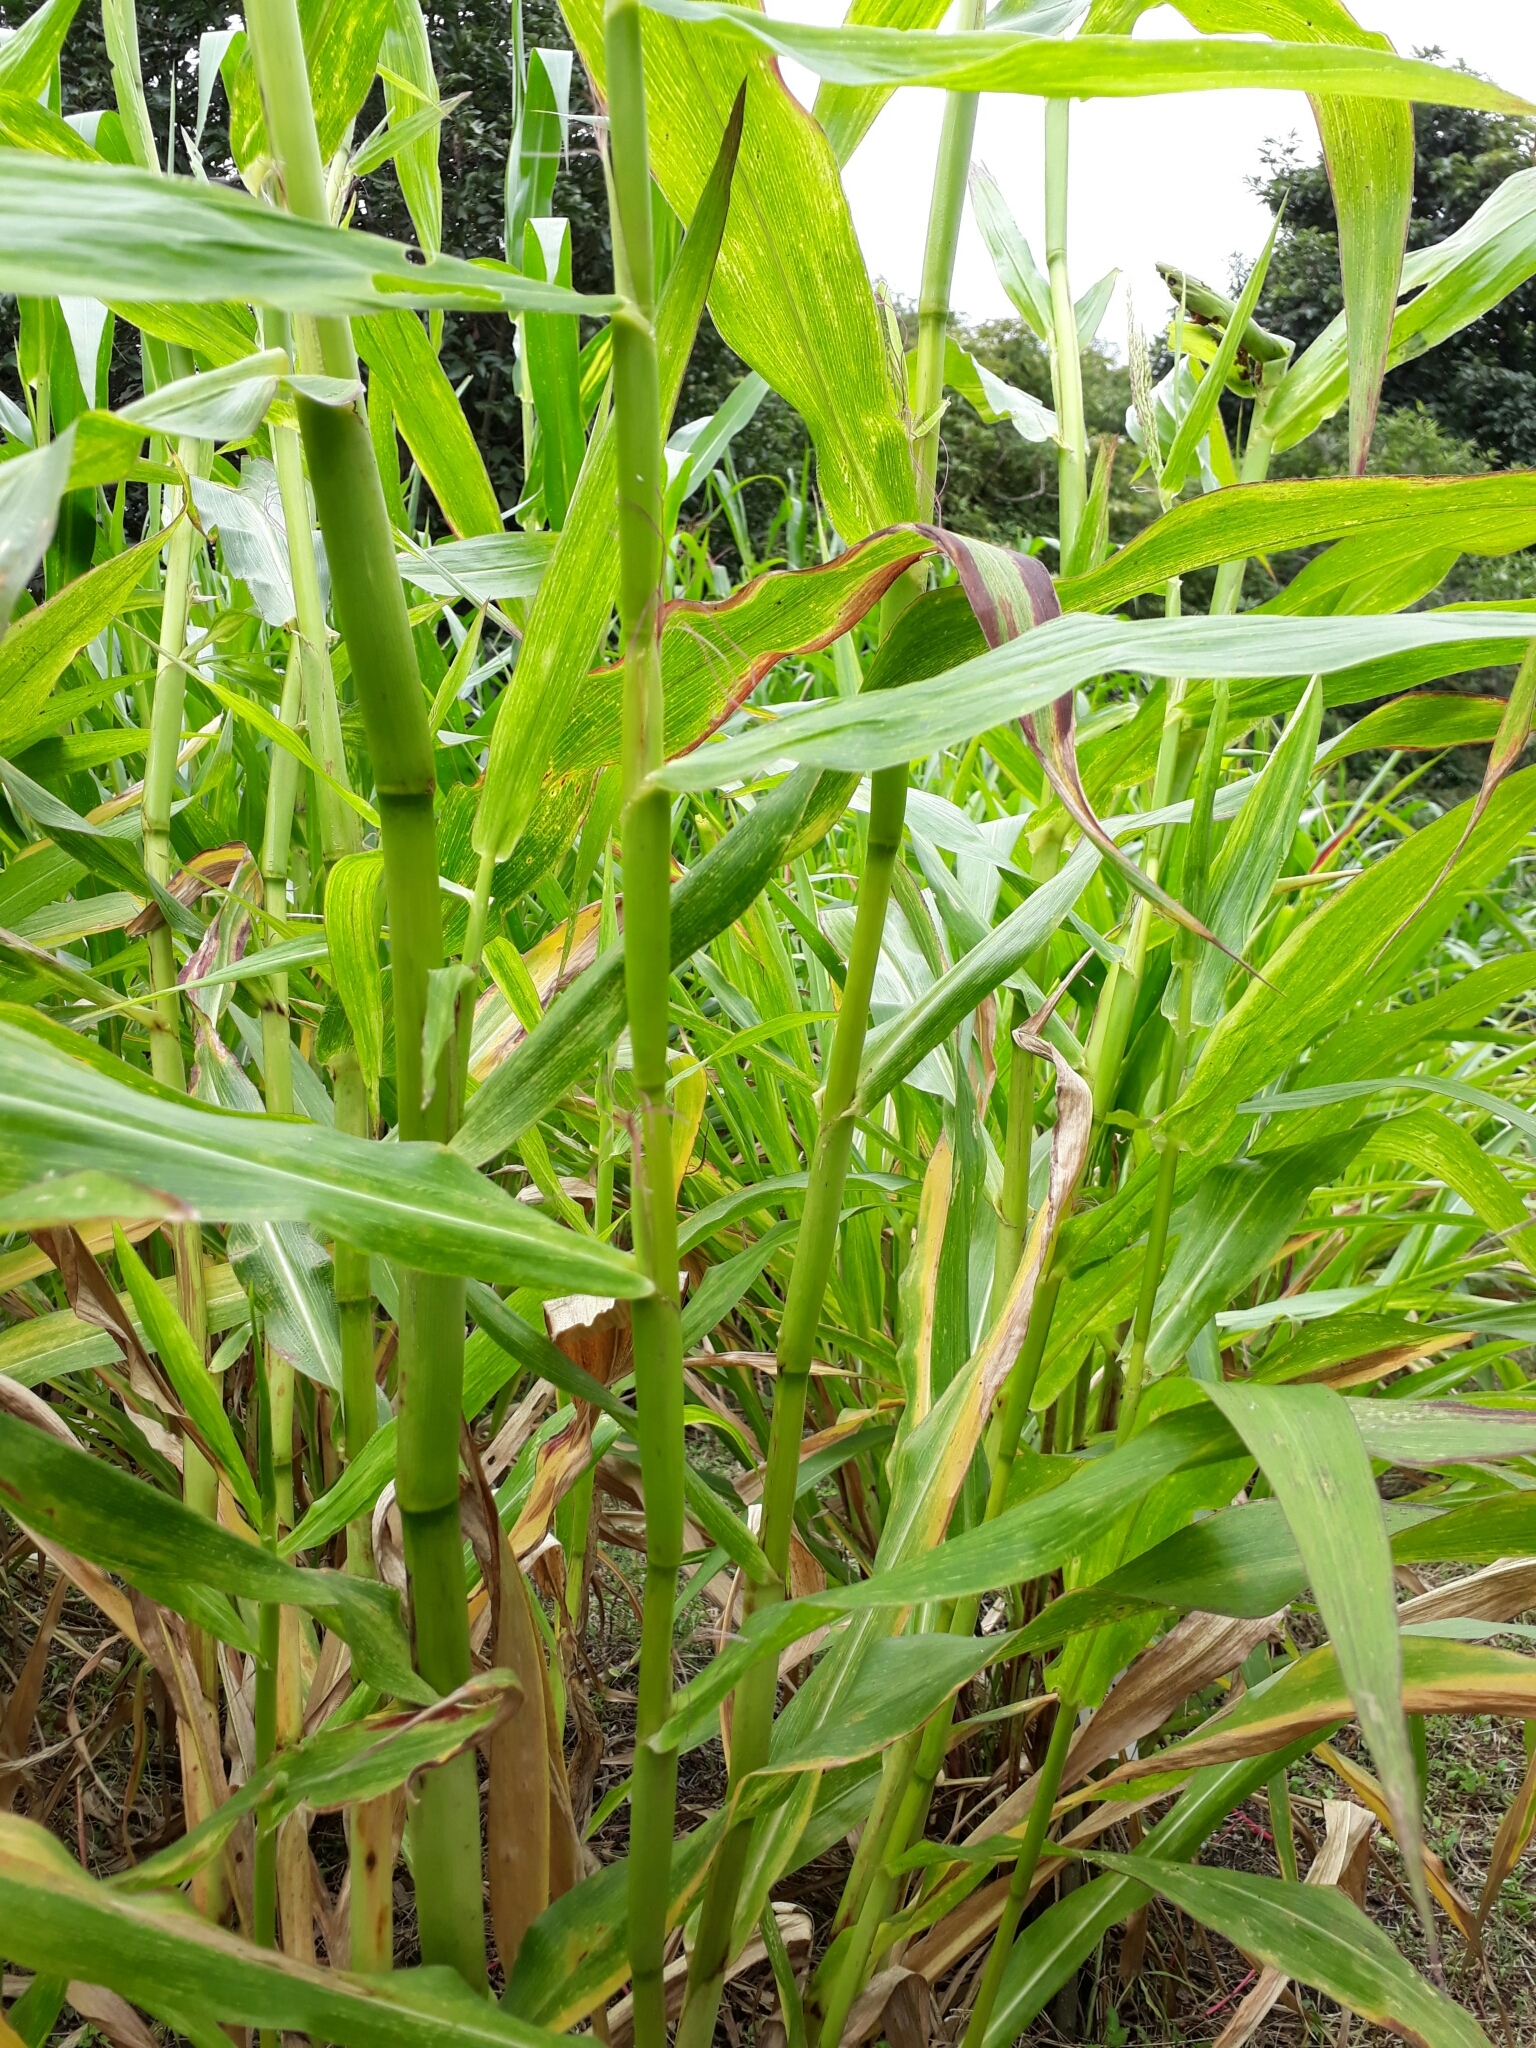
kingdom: Plantae
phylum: Tracheophyta
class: Liliopsida
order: Poales
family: Poaceae
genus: Zea
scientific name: Zea perennis
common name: Perennial teosinte
